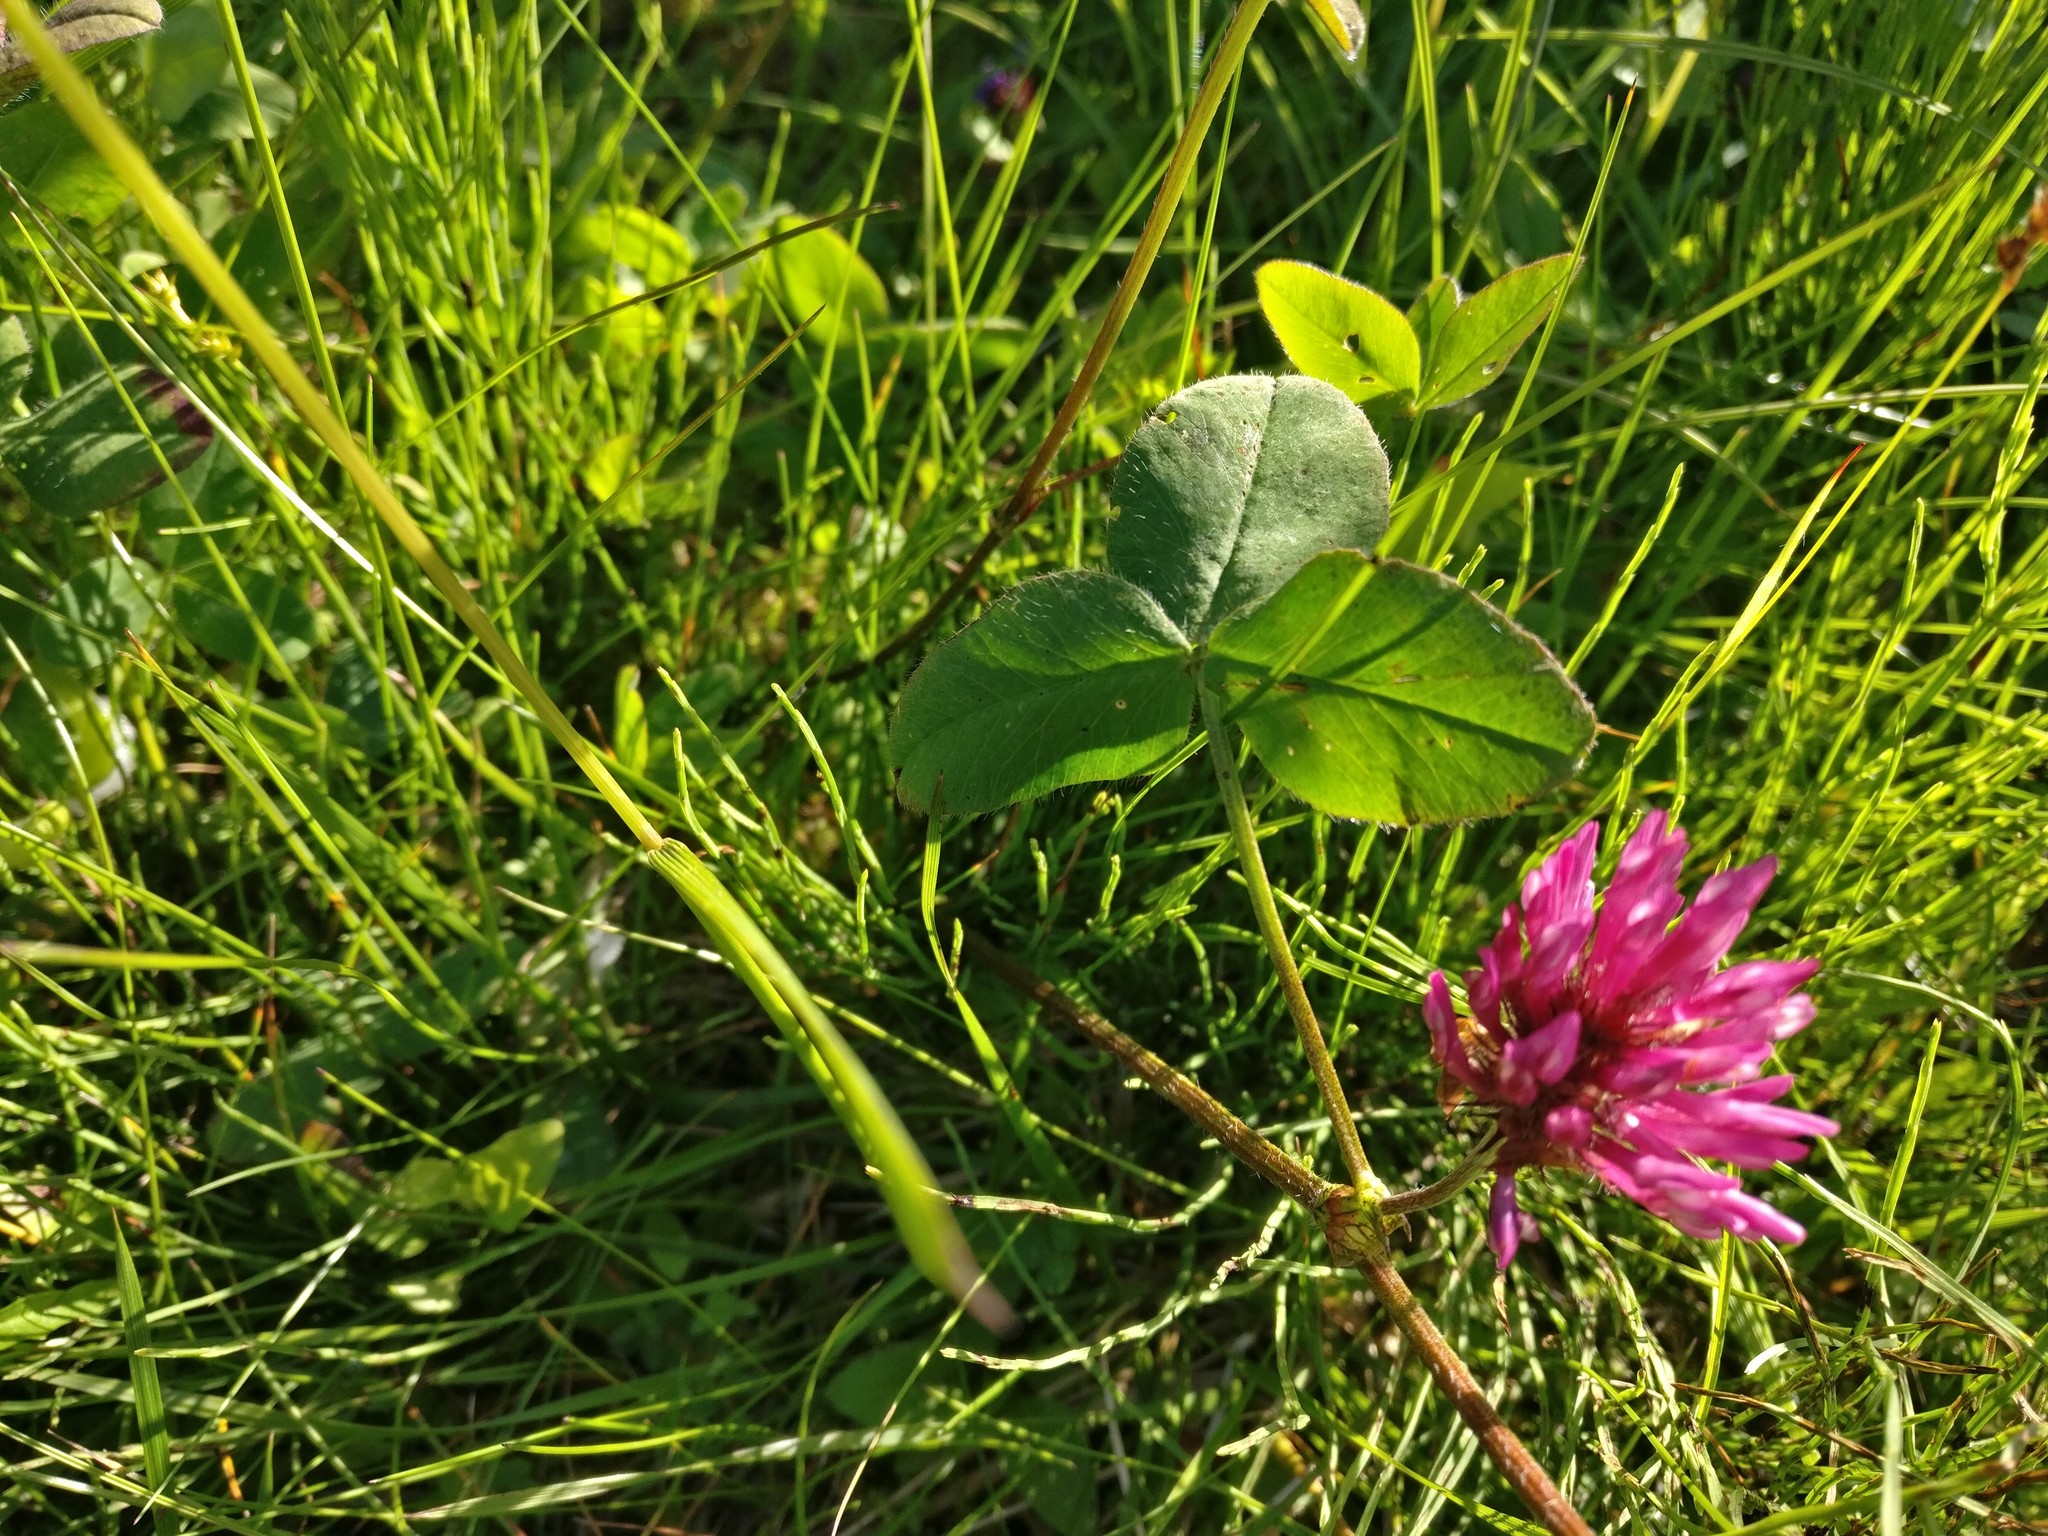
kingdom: Plantae
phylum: Tracheophyta
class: Magnoliopsida
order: Fabales
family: Fabaceae
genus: Trifolium
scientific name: Trifolium pratense
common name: Red clover
